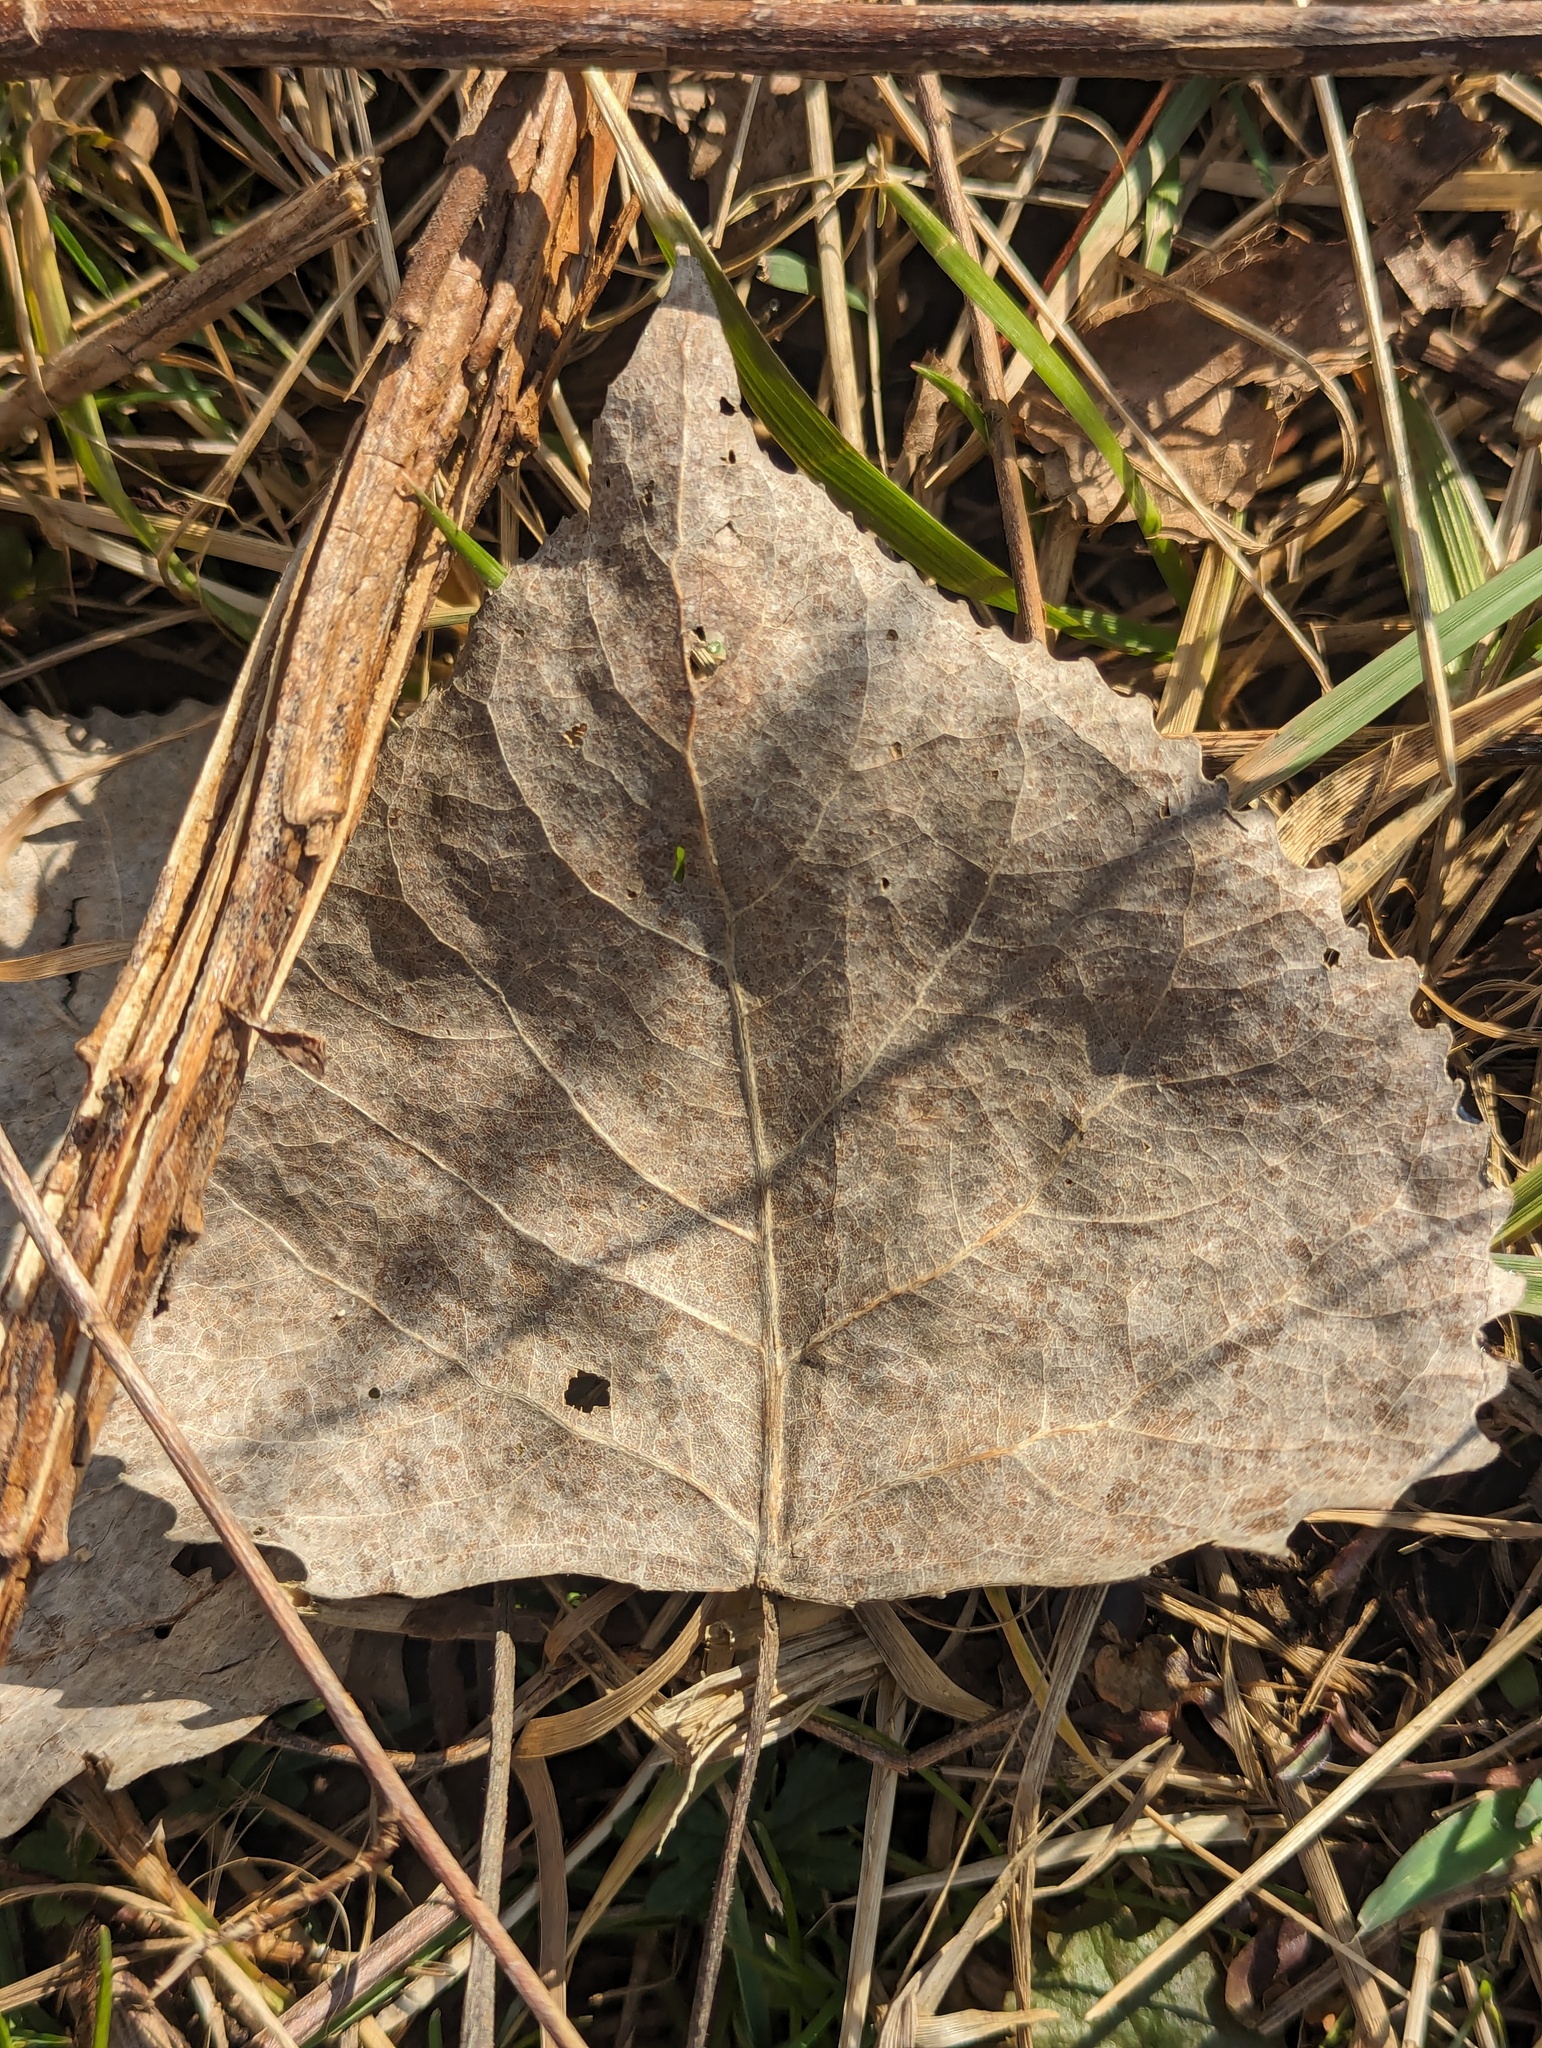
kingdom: Plantae
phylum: Tracheophyta
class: Magnoliopsida
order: Malpighiales
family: Salicaceae
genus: Populus
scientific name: Populus deltoides
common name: Eastern cottonwood
